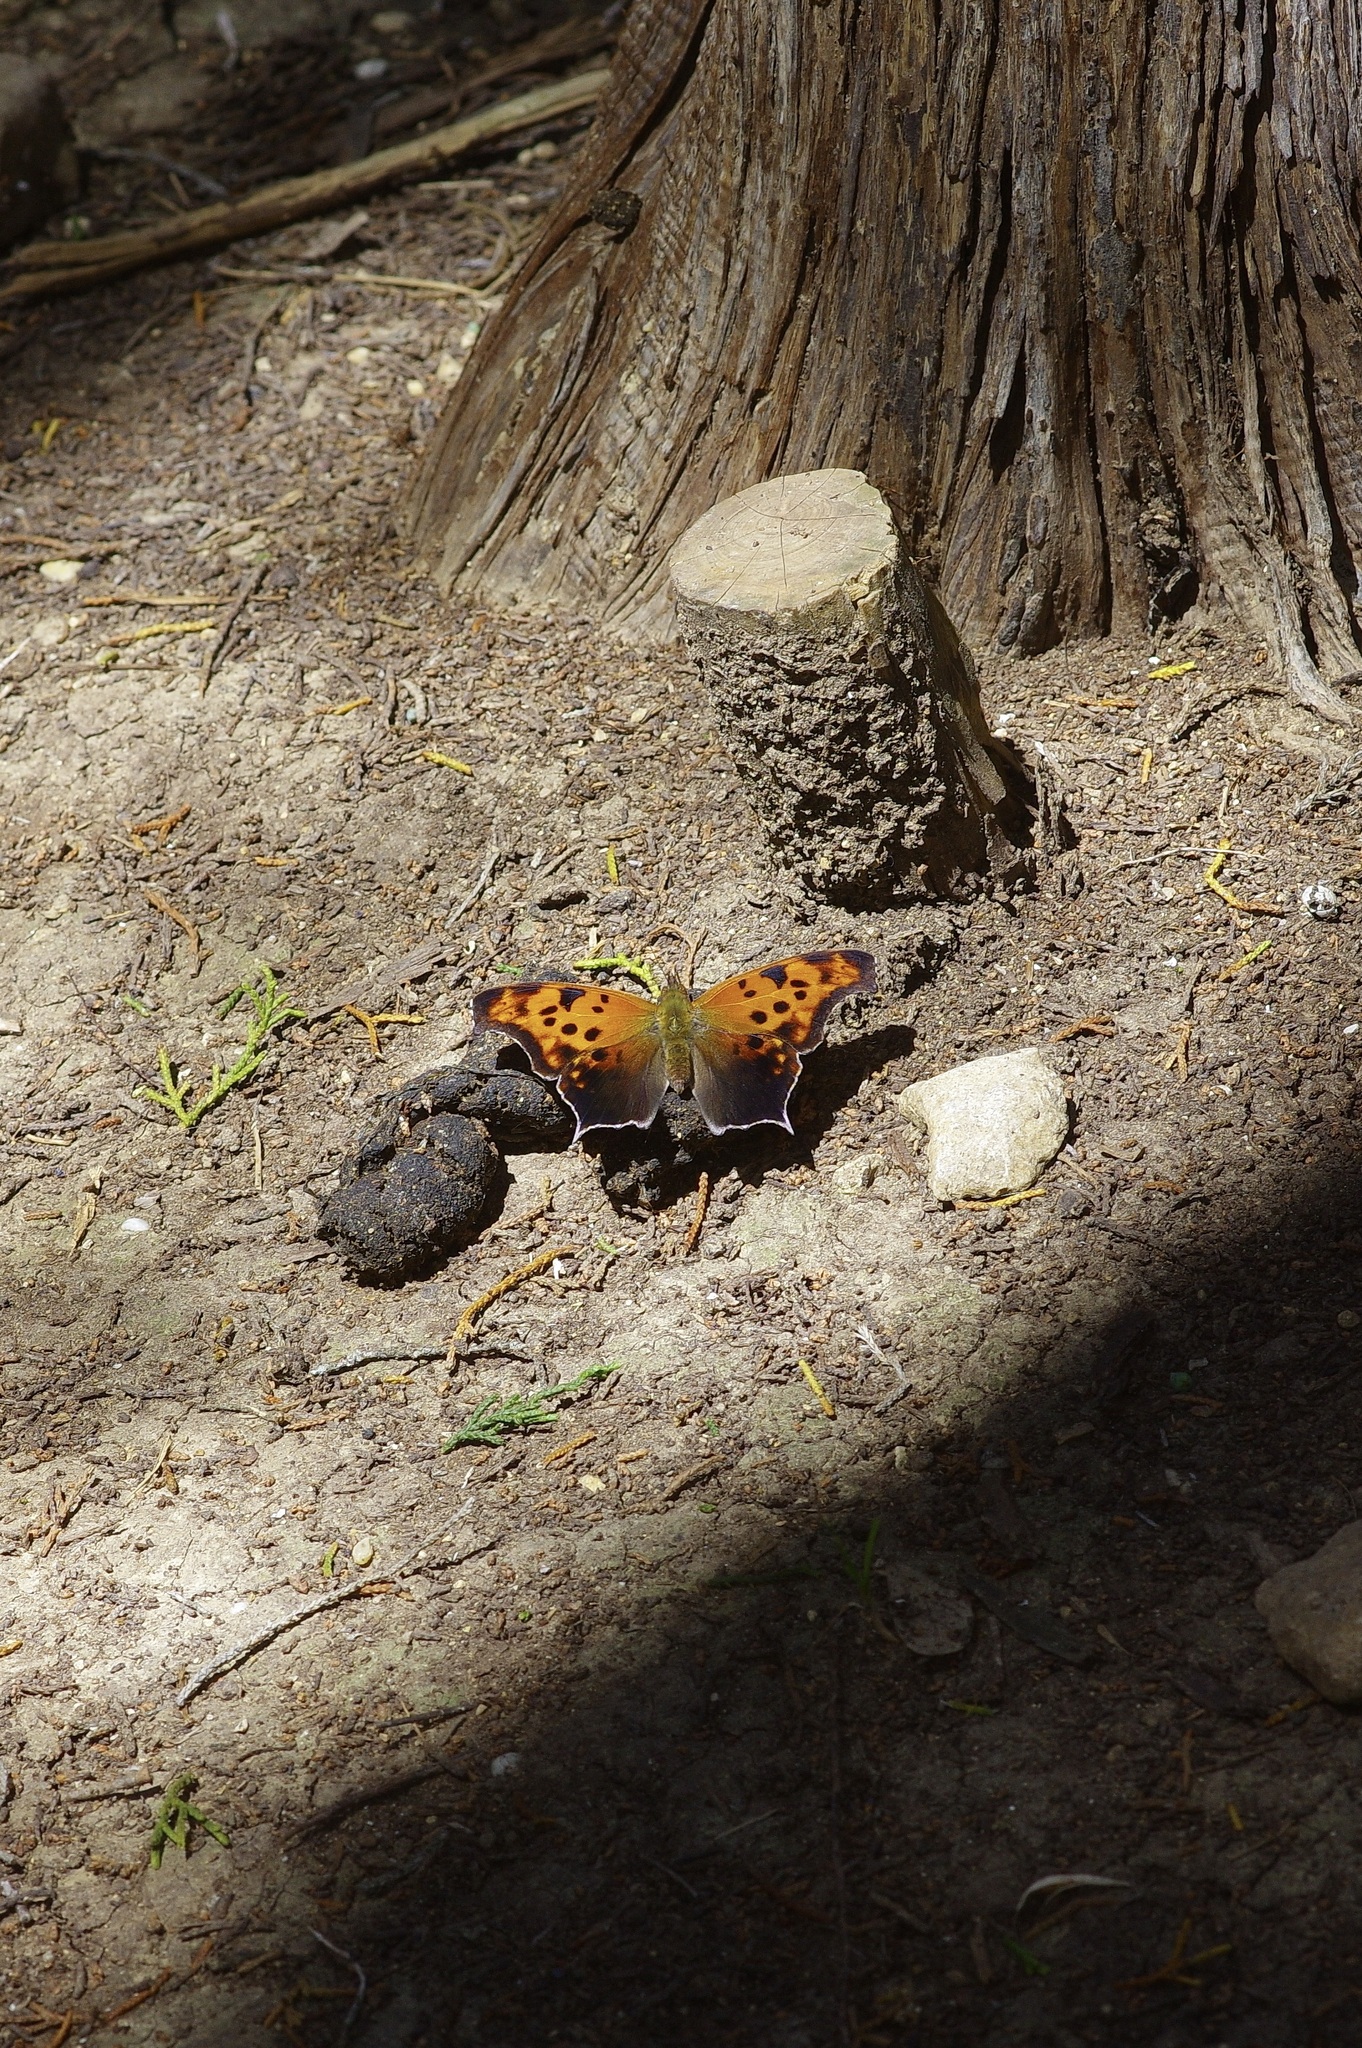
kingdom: Animalia
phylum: Arthropoda
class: Insecta
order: Lepidoptera
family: Nymphalidae
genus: Polygonia
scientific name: Polygonia interrogationis
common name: Question mark
